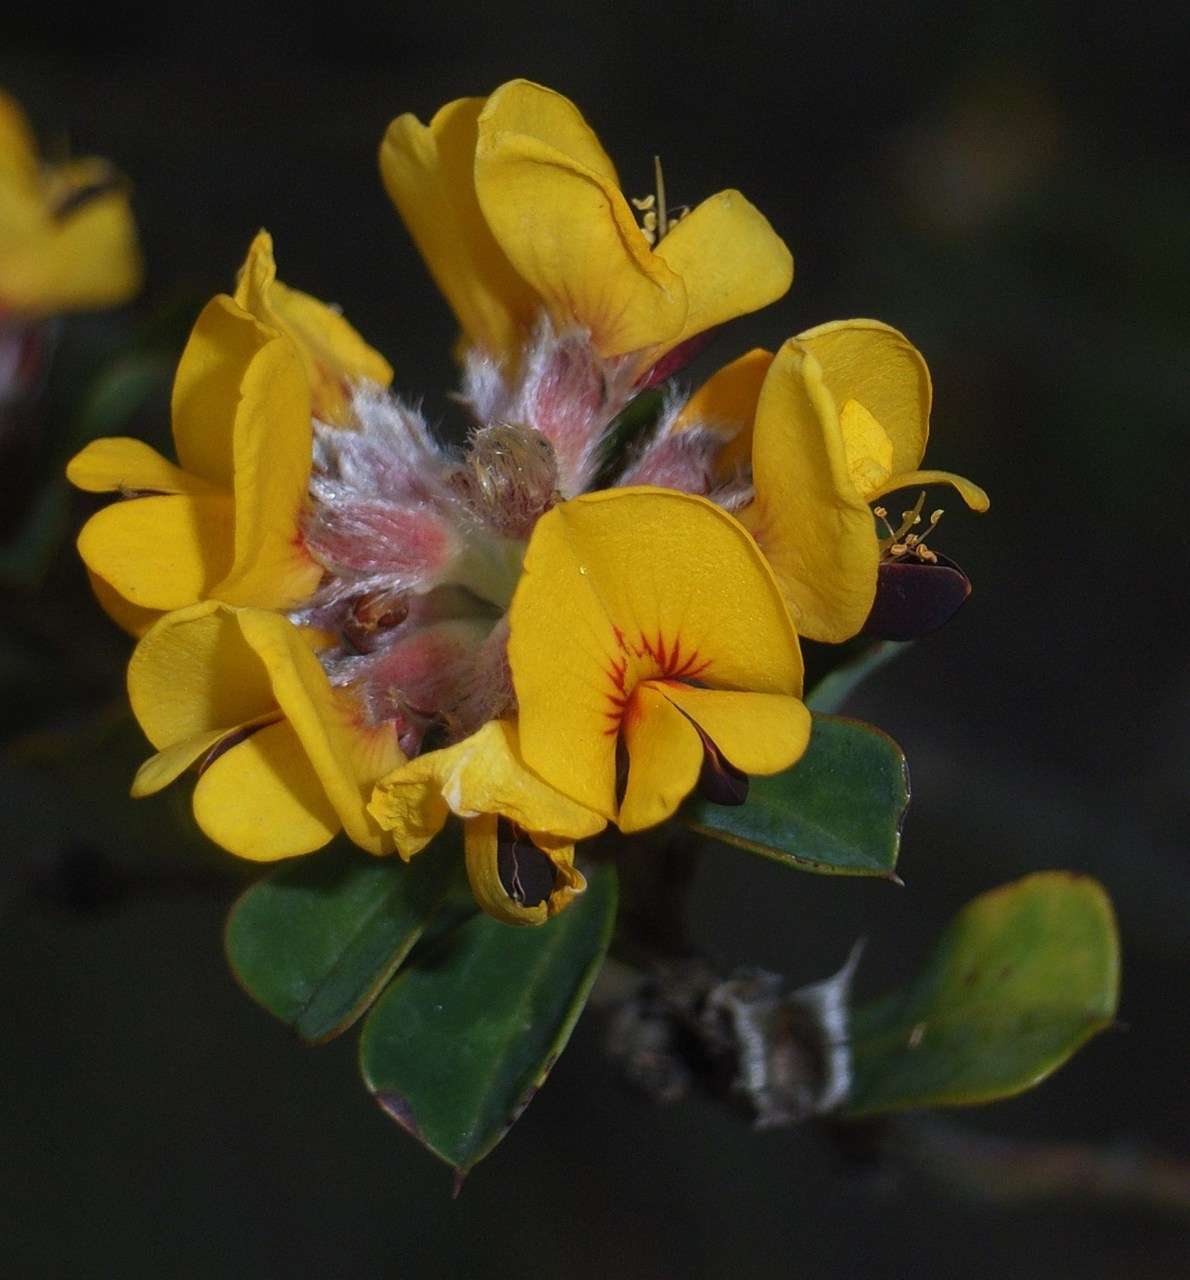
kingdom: Plantae
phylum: Tracheophyta
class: Magnoliopsida
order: Fabales
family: Fabaceae
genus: Pultenaea
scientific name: Pultenaea daphnoides
